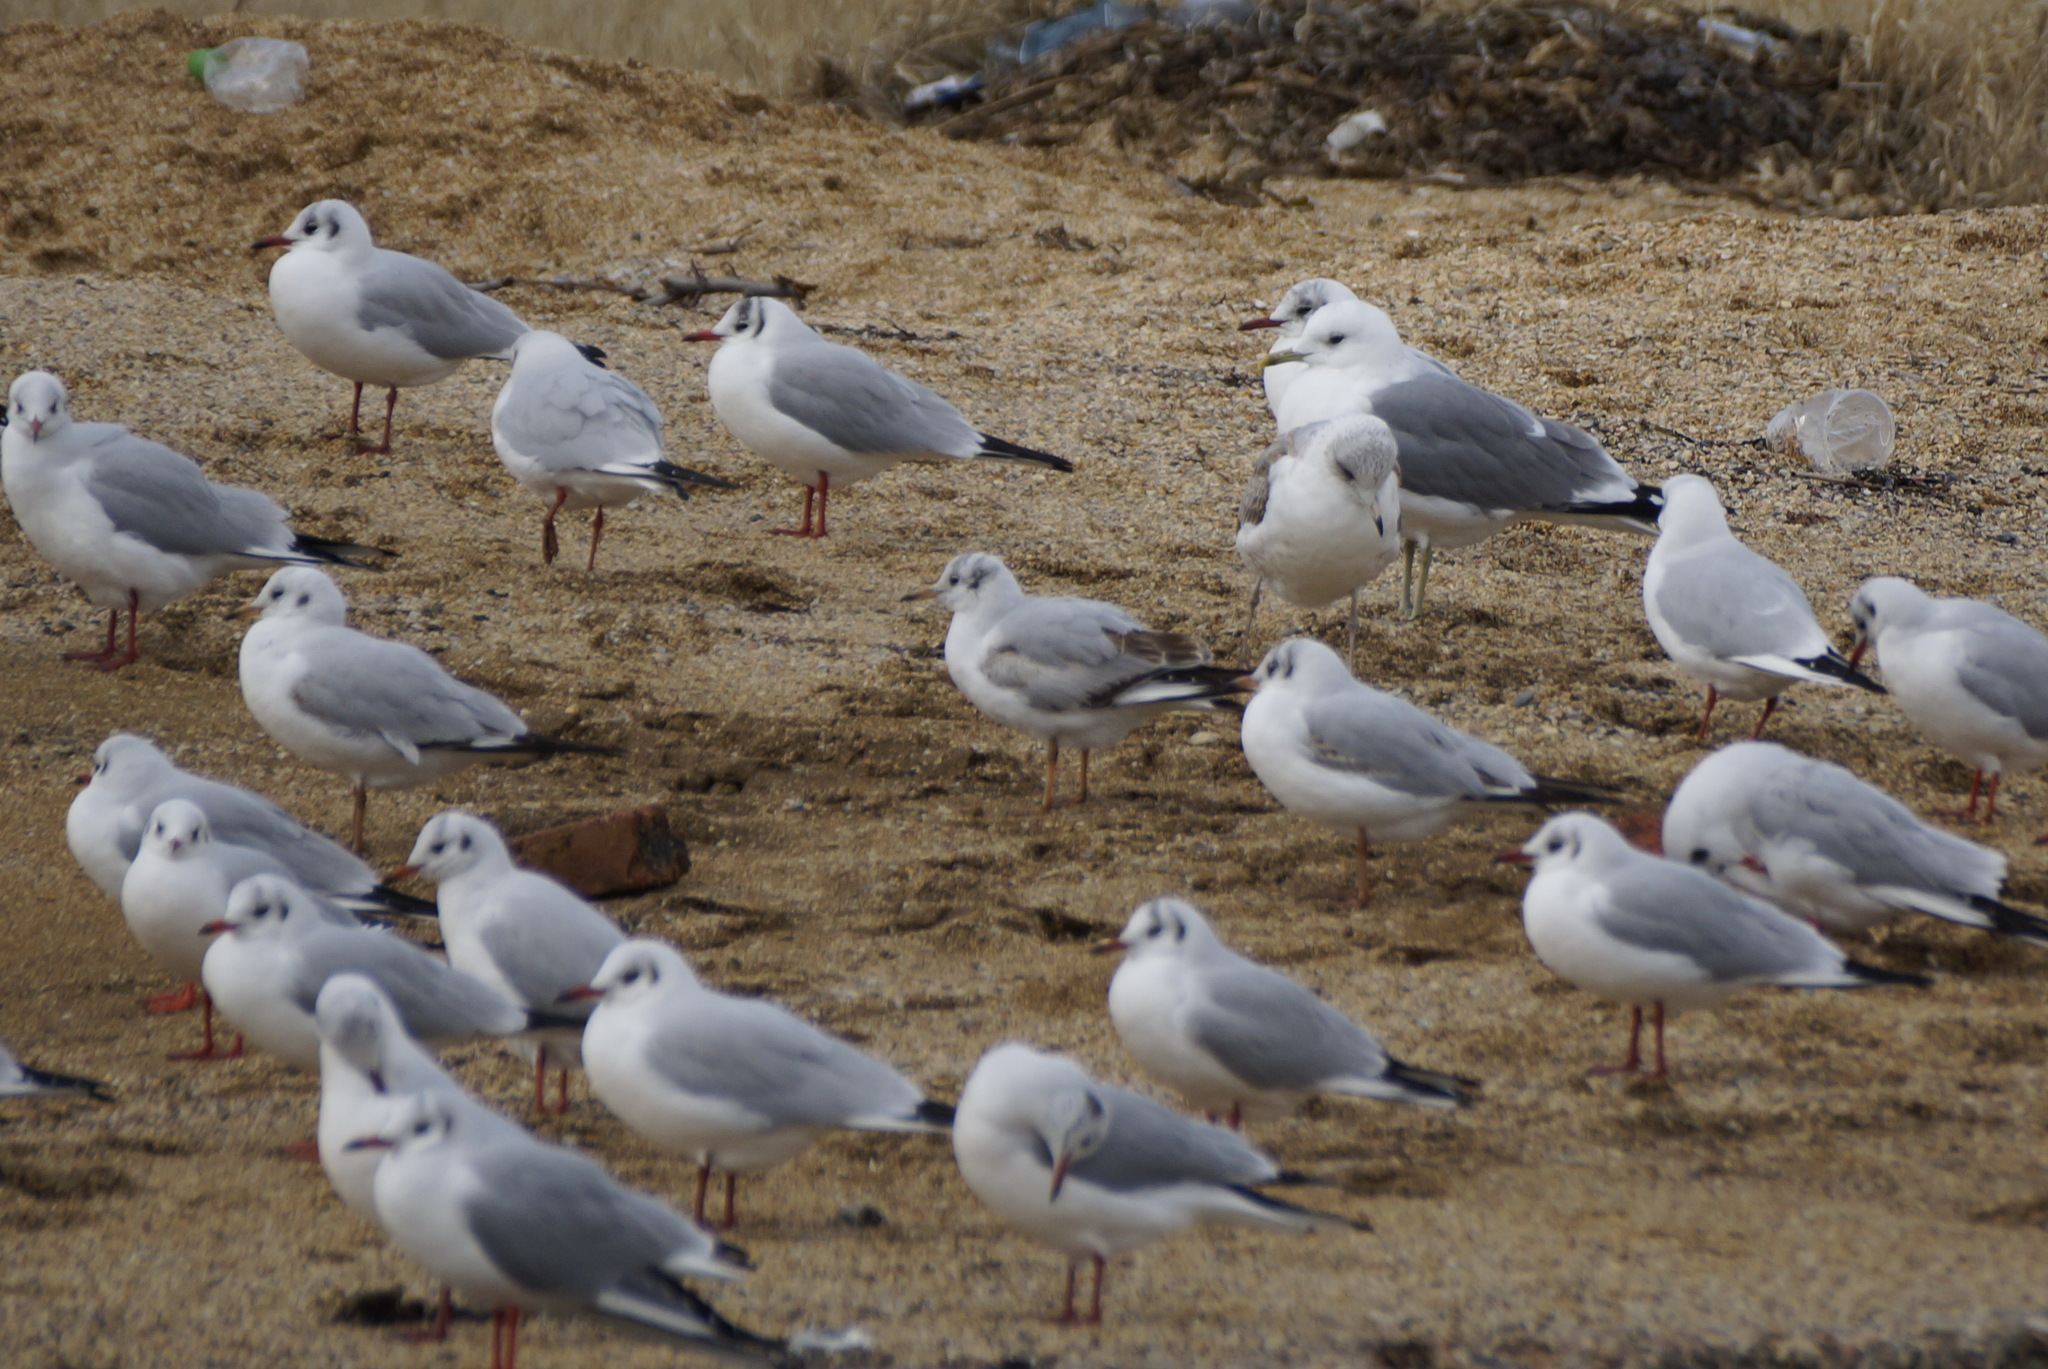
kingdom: Animalia
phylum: Chordata
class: Aves
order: Charadriiformes
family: Laridae
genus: Larus
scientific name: Larus canus
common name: Mew gull
